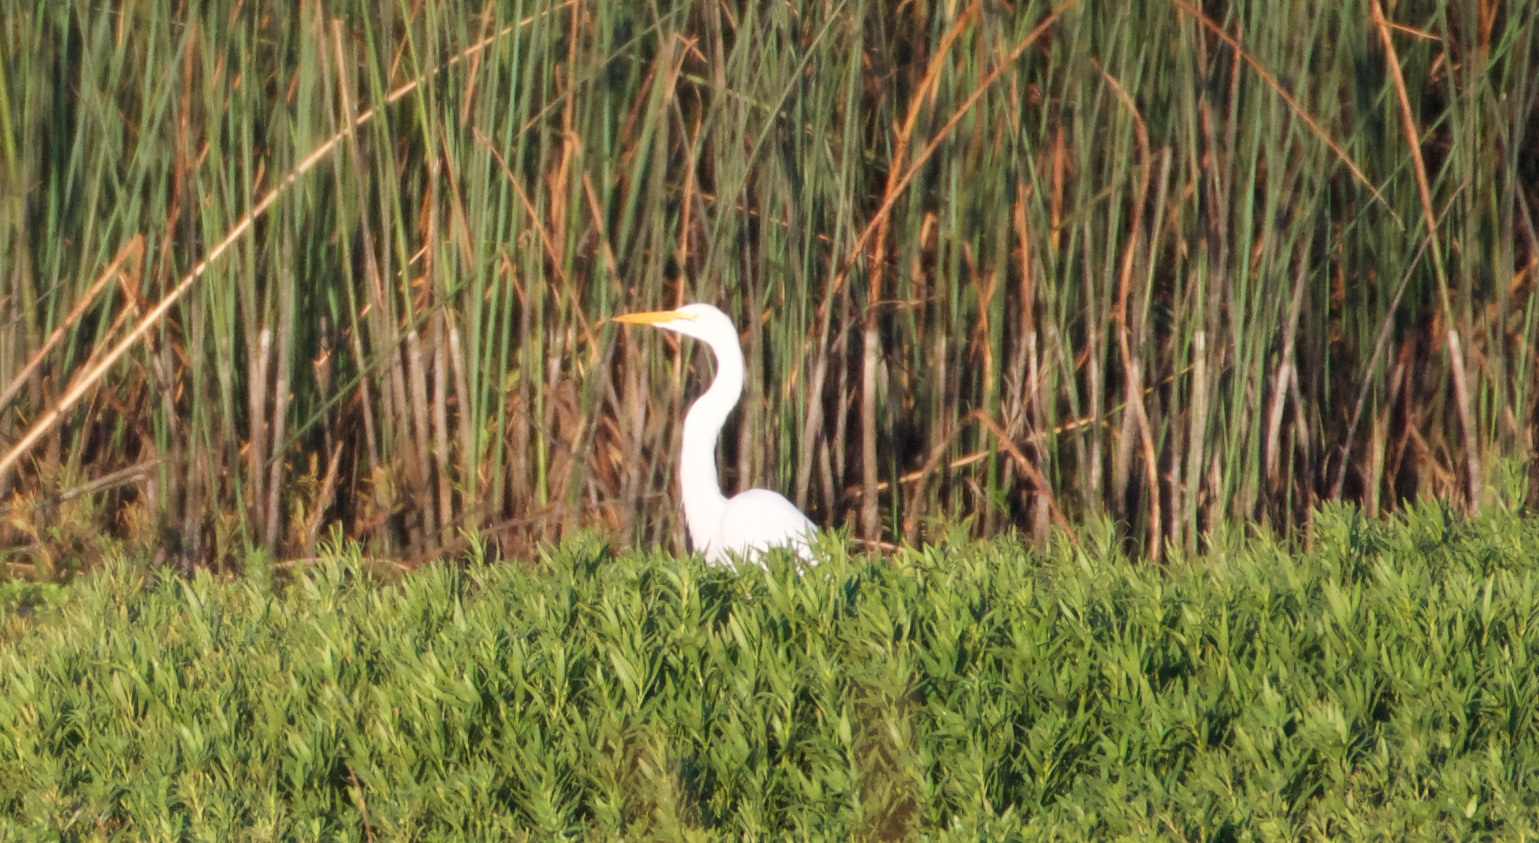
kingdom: Animalia
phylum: Chordata
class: Aves
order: Pelecaniformes
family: Ardeidae
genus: Ardea
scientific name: Ardea alba
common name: Great egret
